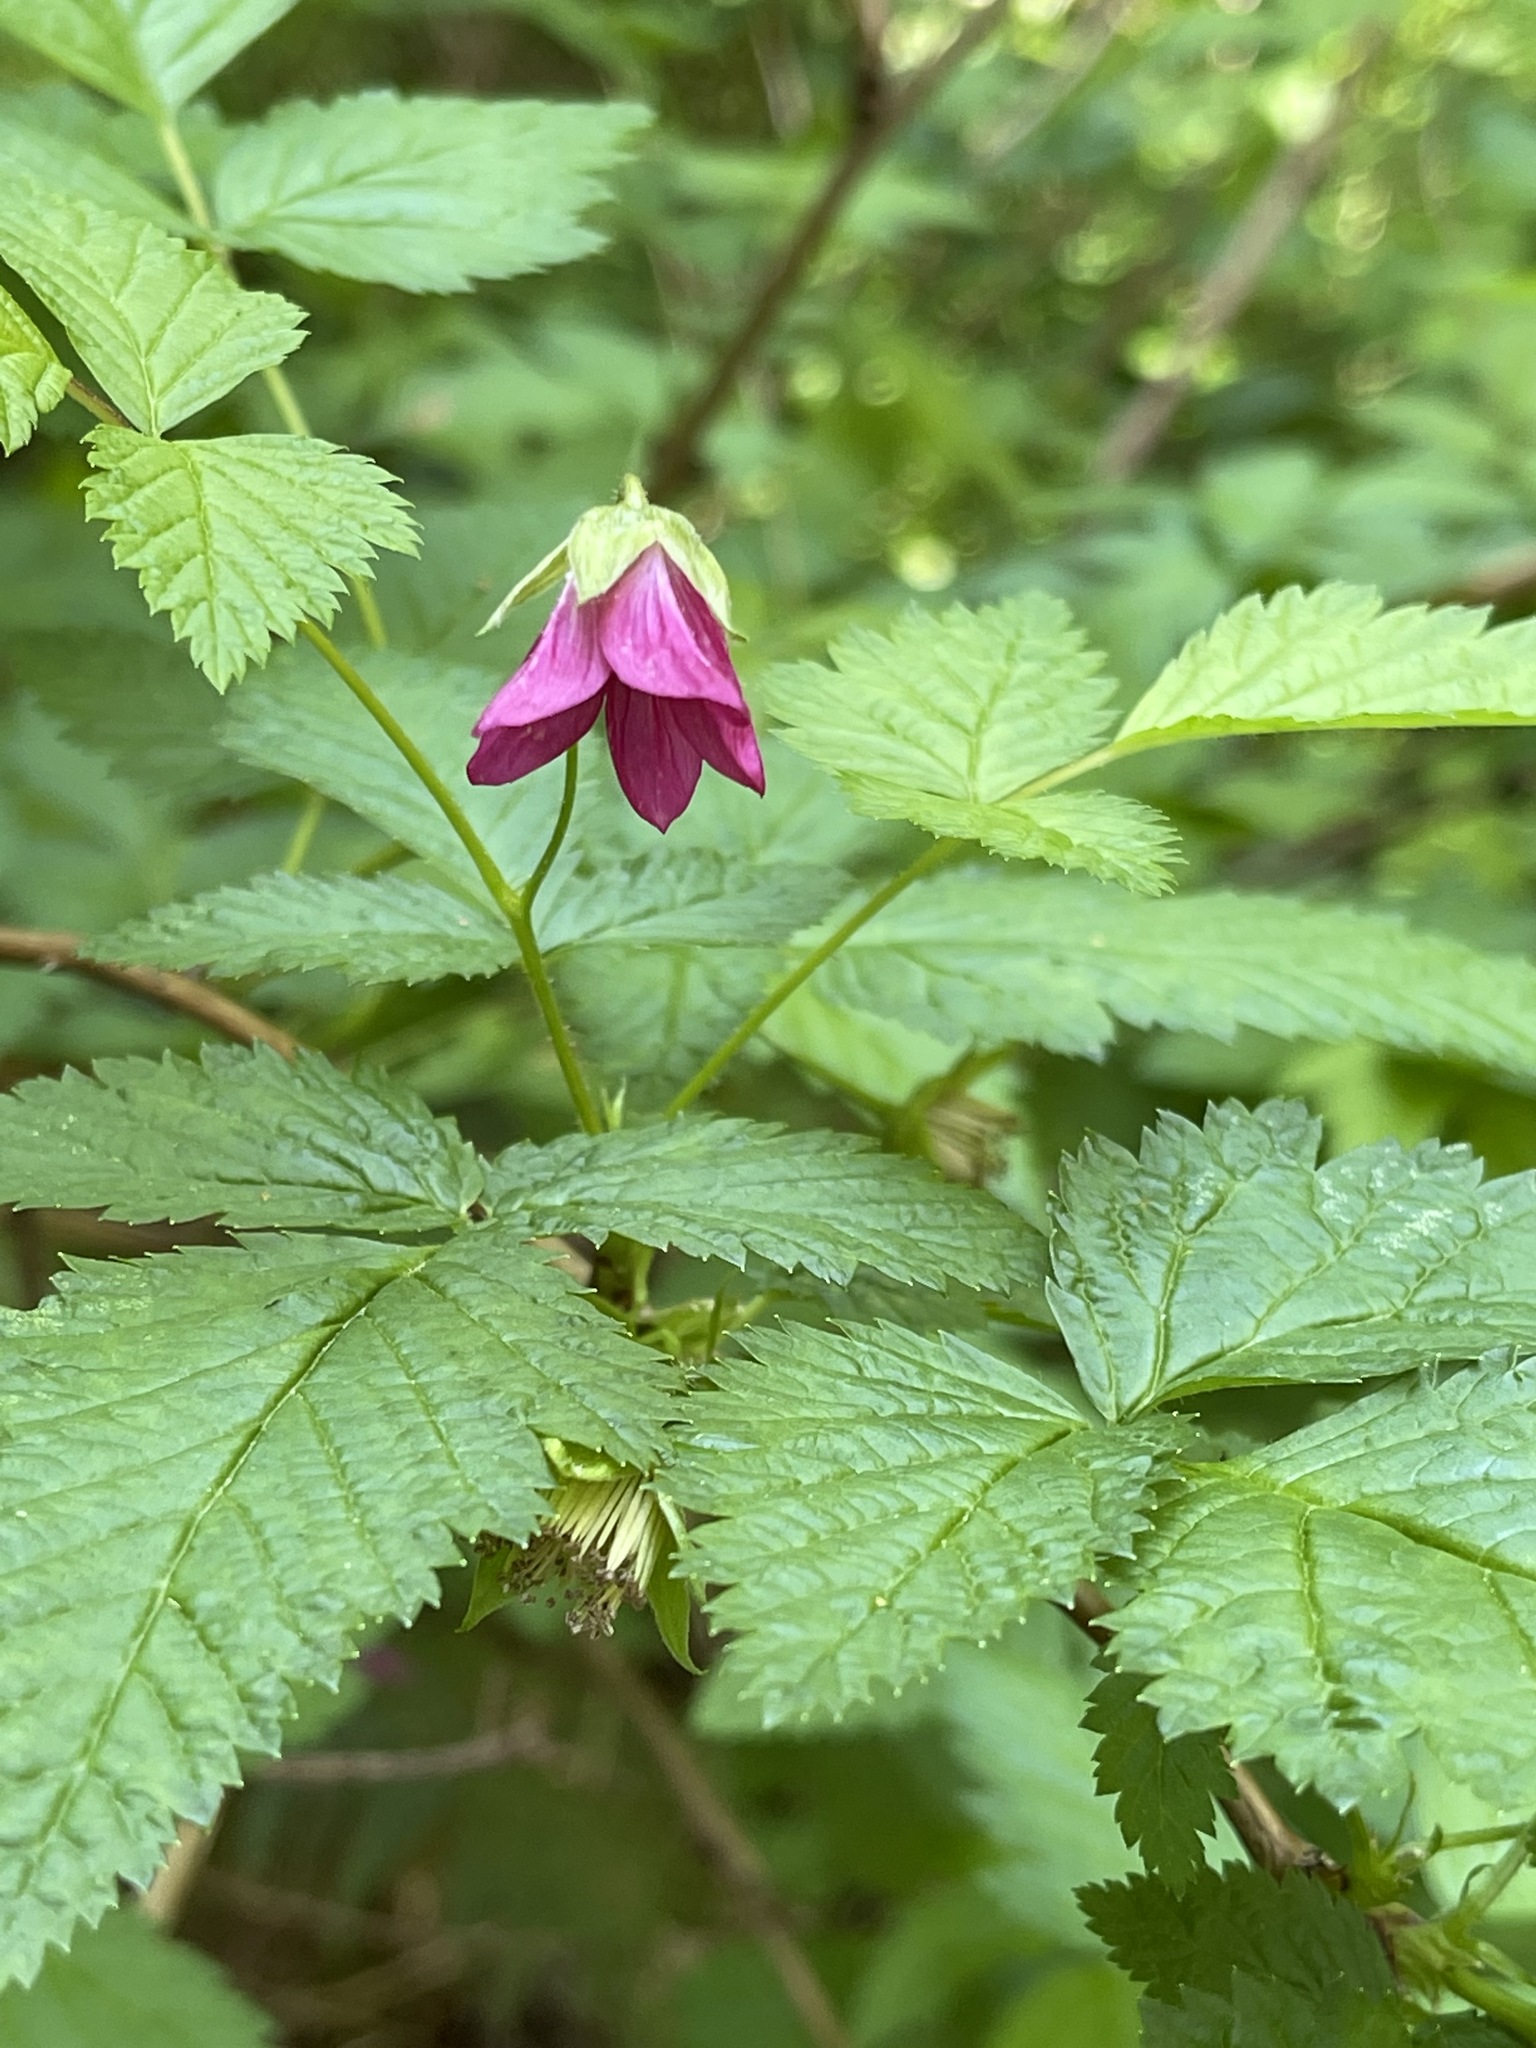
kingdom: Plantae
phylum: Tracheophyta
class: Magnoliopsida
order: Rosales
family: Rosaceae
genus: Rubus
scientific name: Rubus spectabilis
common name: Salmonberry
